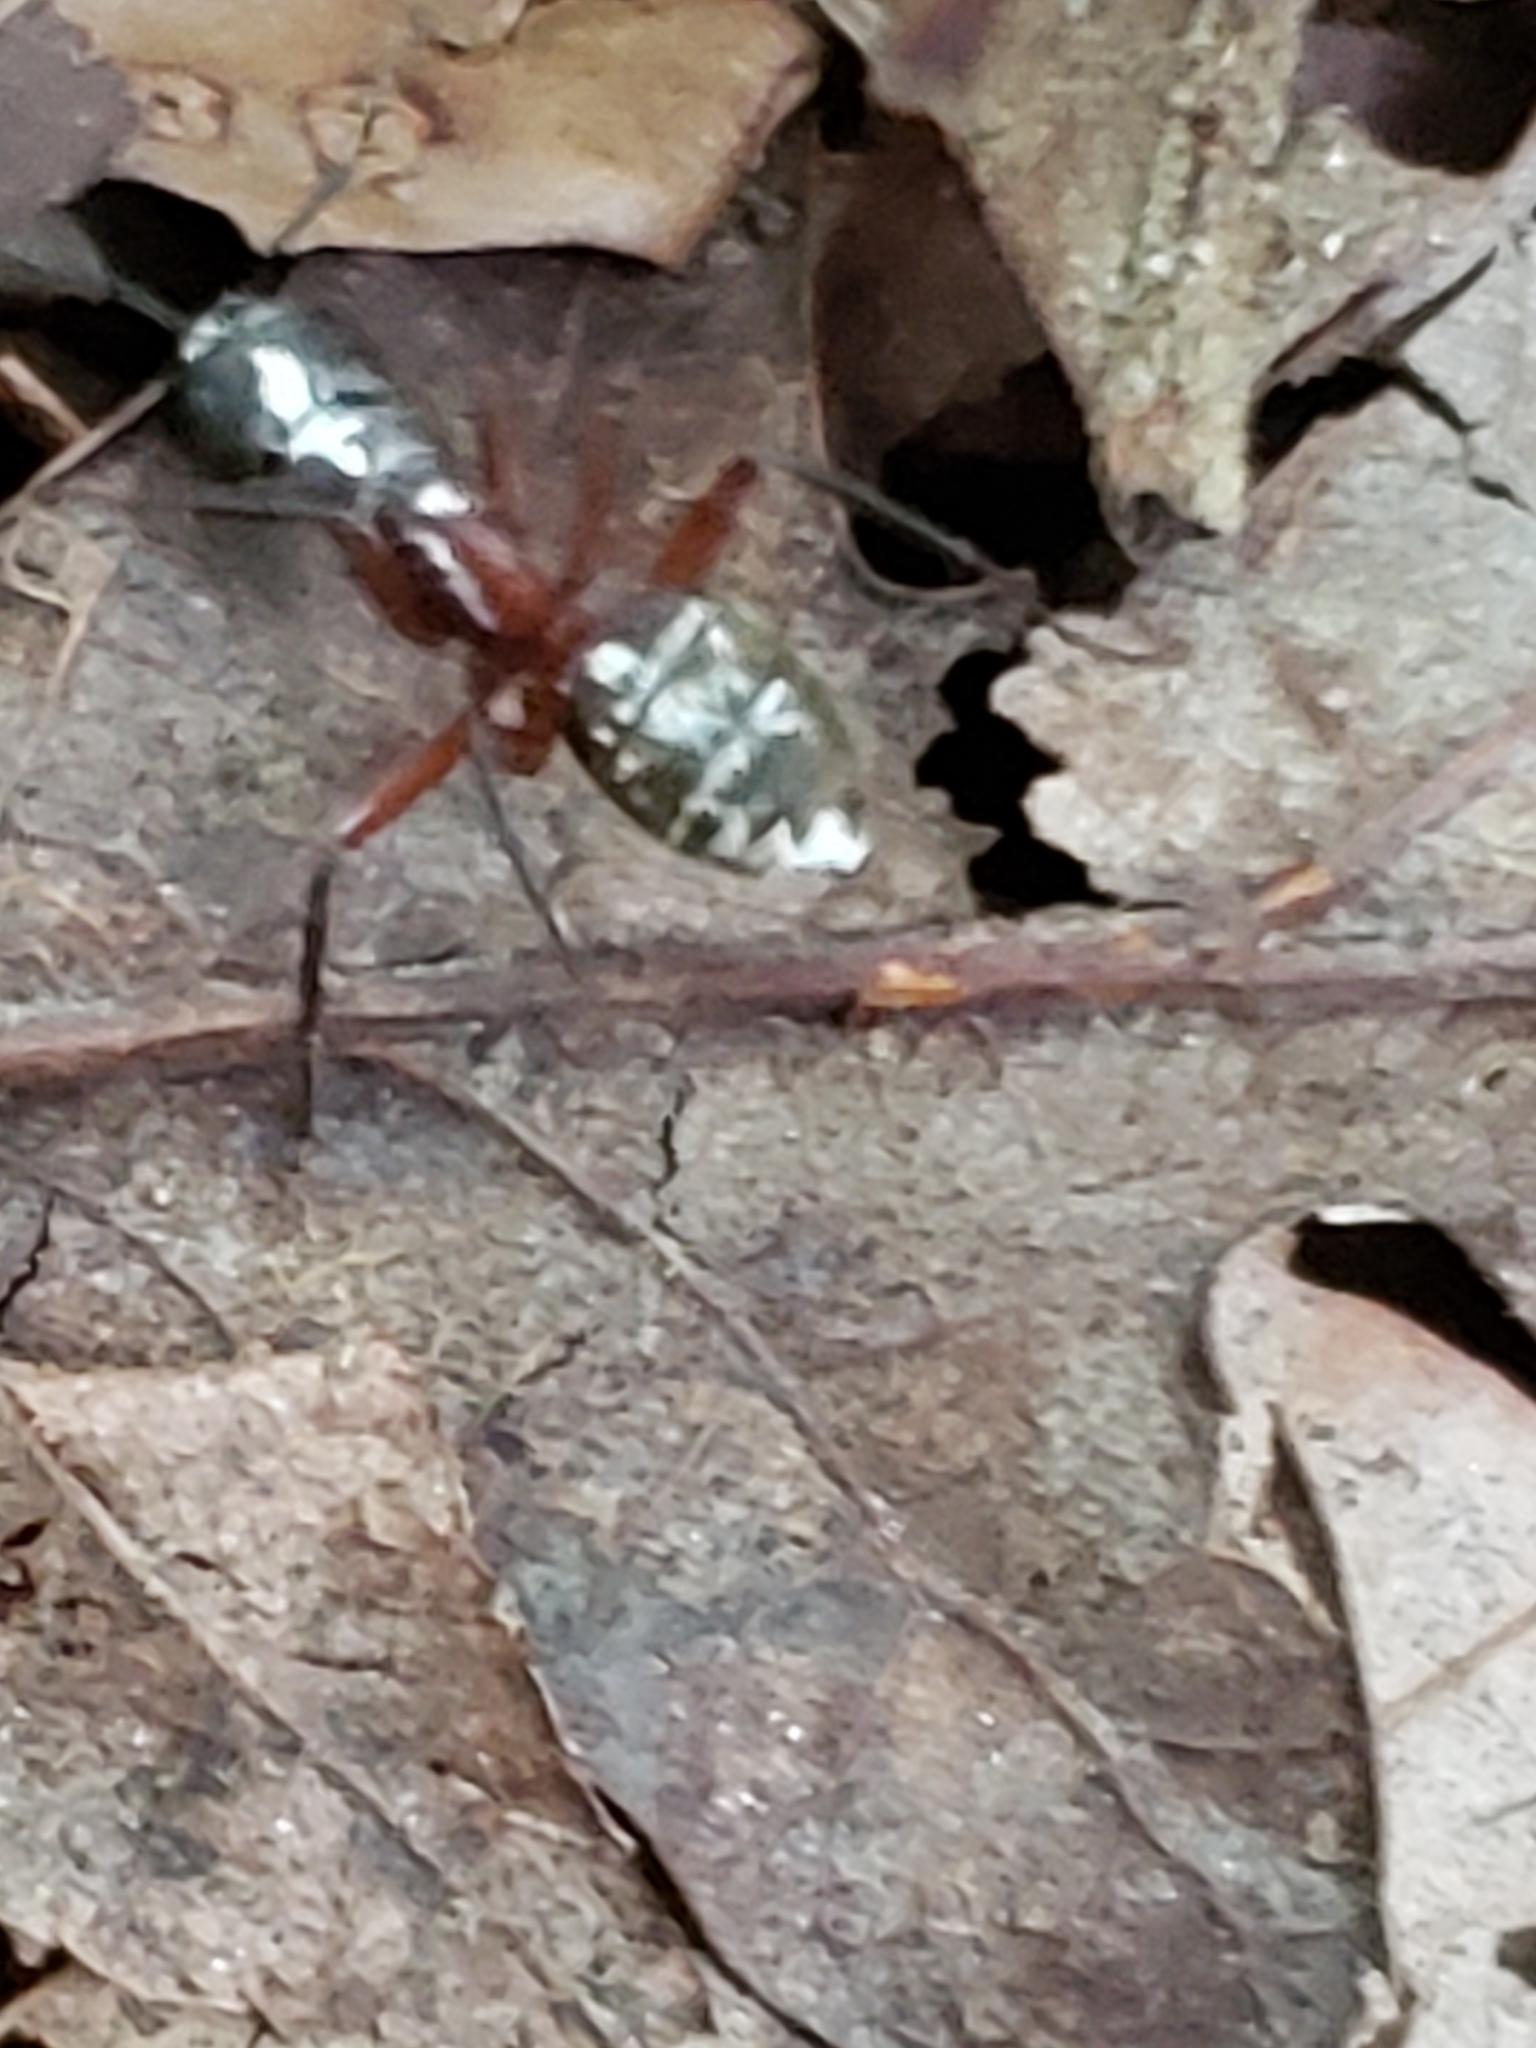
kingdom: Animalia
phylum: Arthropoda
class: Insecta
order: Hymenoptera
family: Formicidae
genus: Camponotus
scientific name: Camponotus chromaiodes
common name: Red carpenter ant
